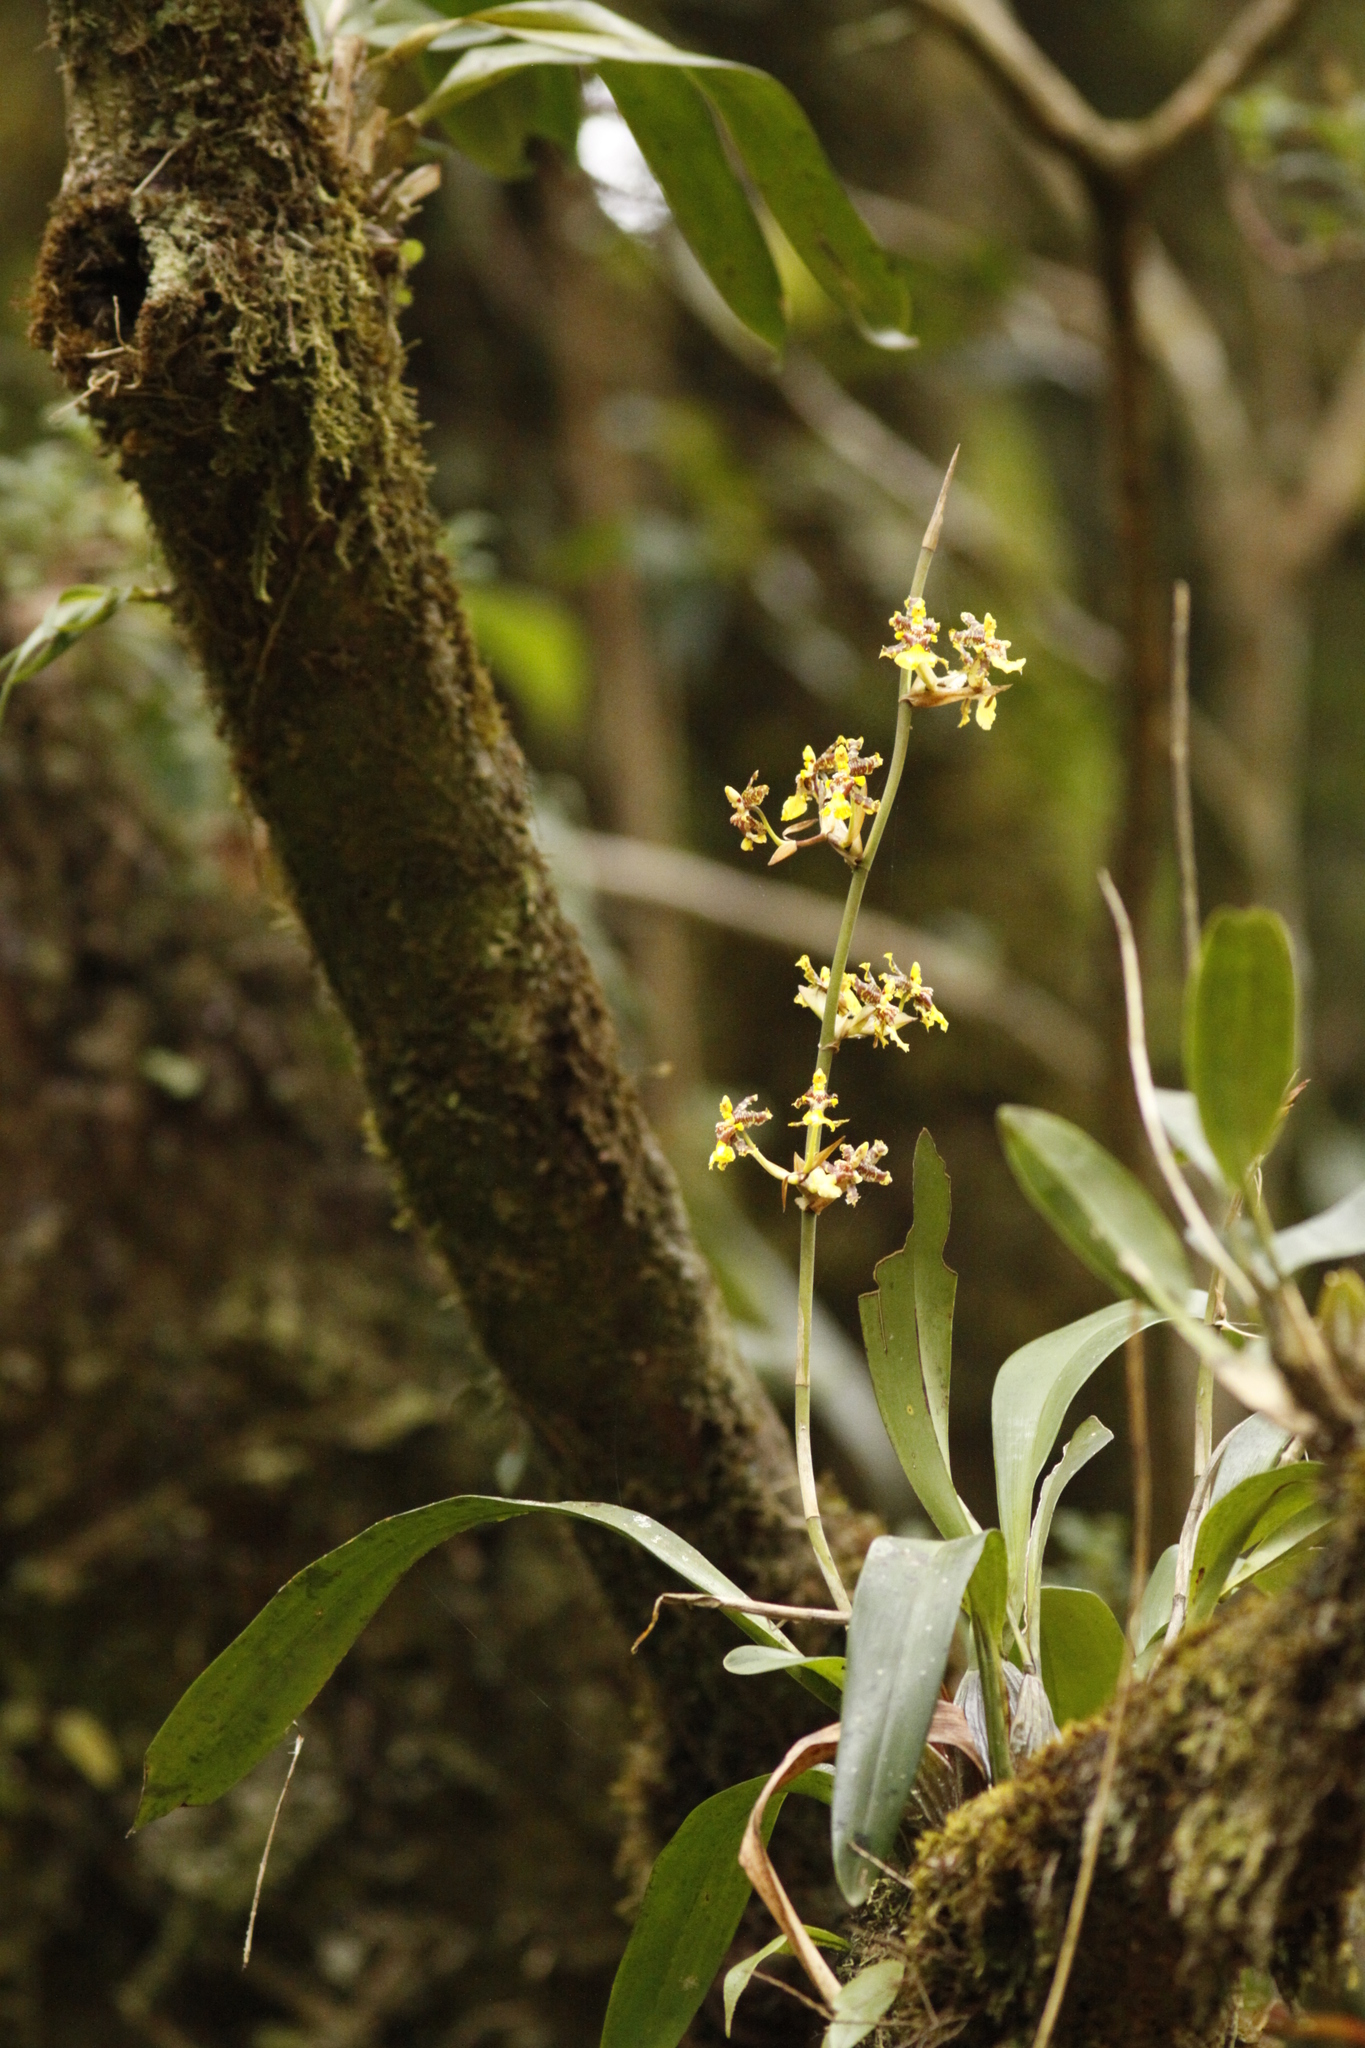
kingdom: Plantae
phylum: Tracheophyta
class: Liliopsida
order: Asparagales
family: Orchidaceae
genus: Oncidium
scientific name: Oncidium bracteatum
